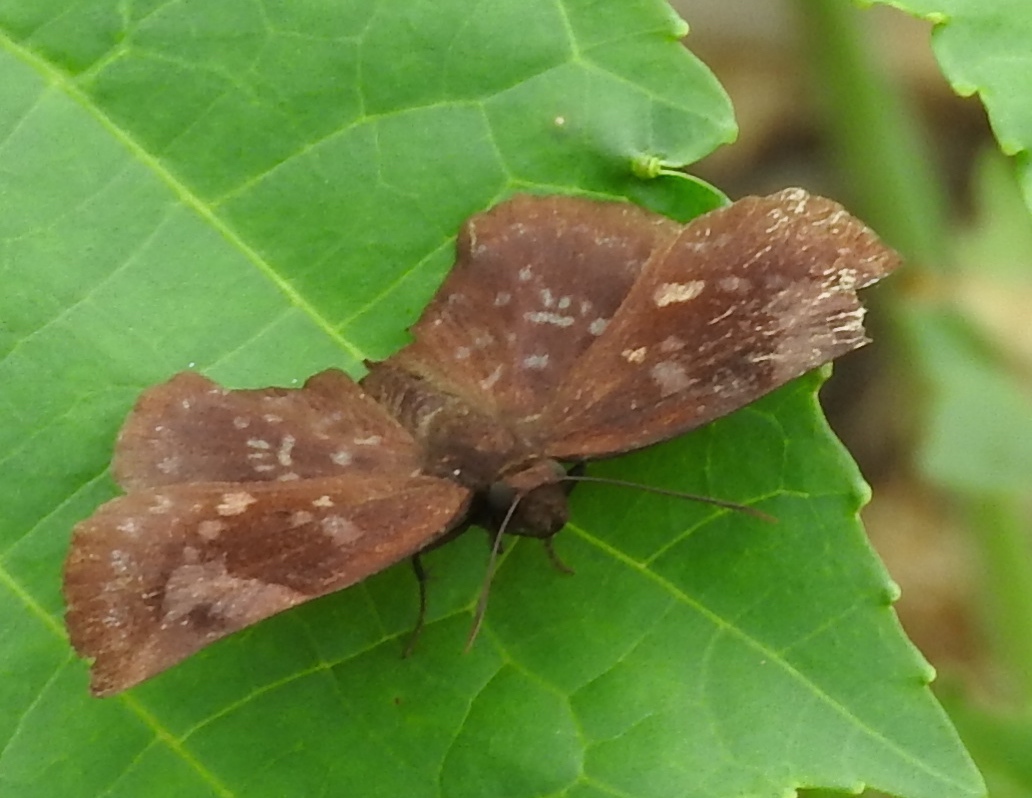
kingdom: Animalia
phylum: Arthropoda
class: Insecta
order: Lepidoptera
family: Hesperiidae
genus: Achlyodes
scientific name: Achlyodes thraso
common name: Sickle-winged skipper
